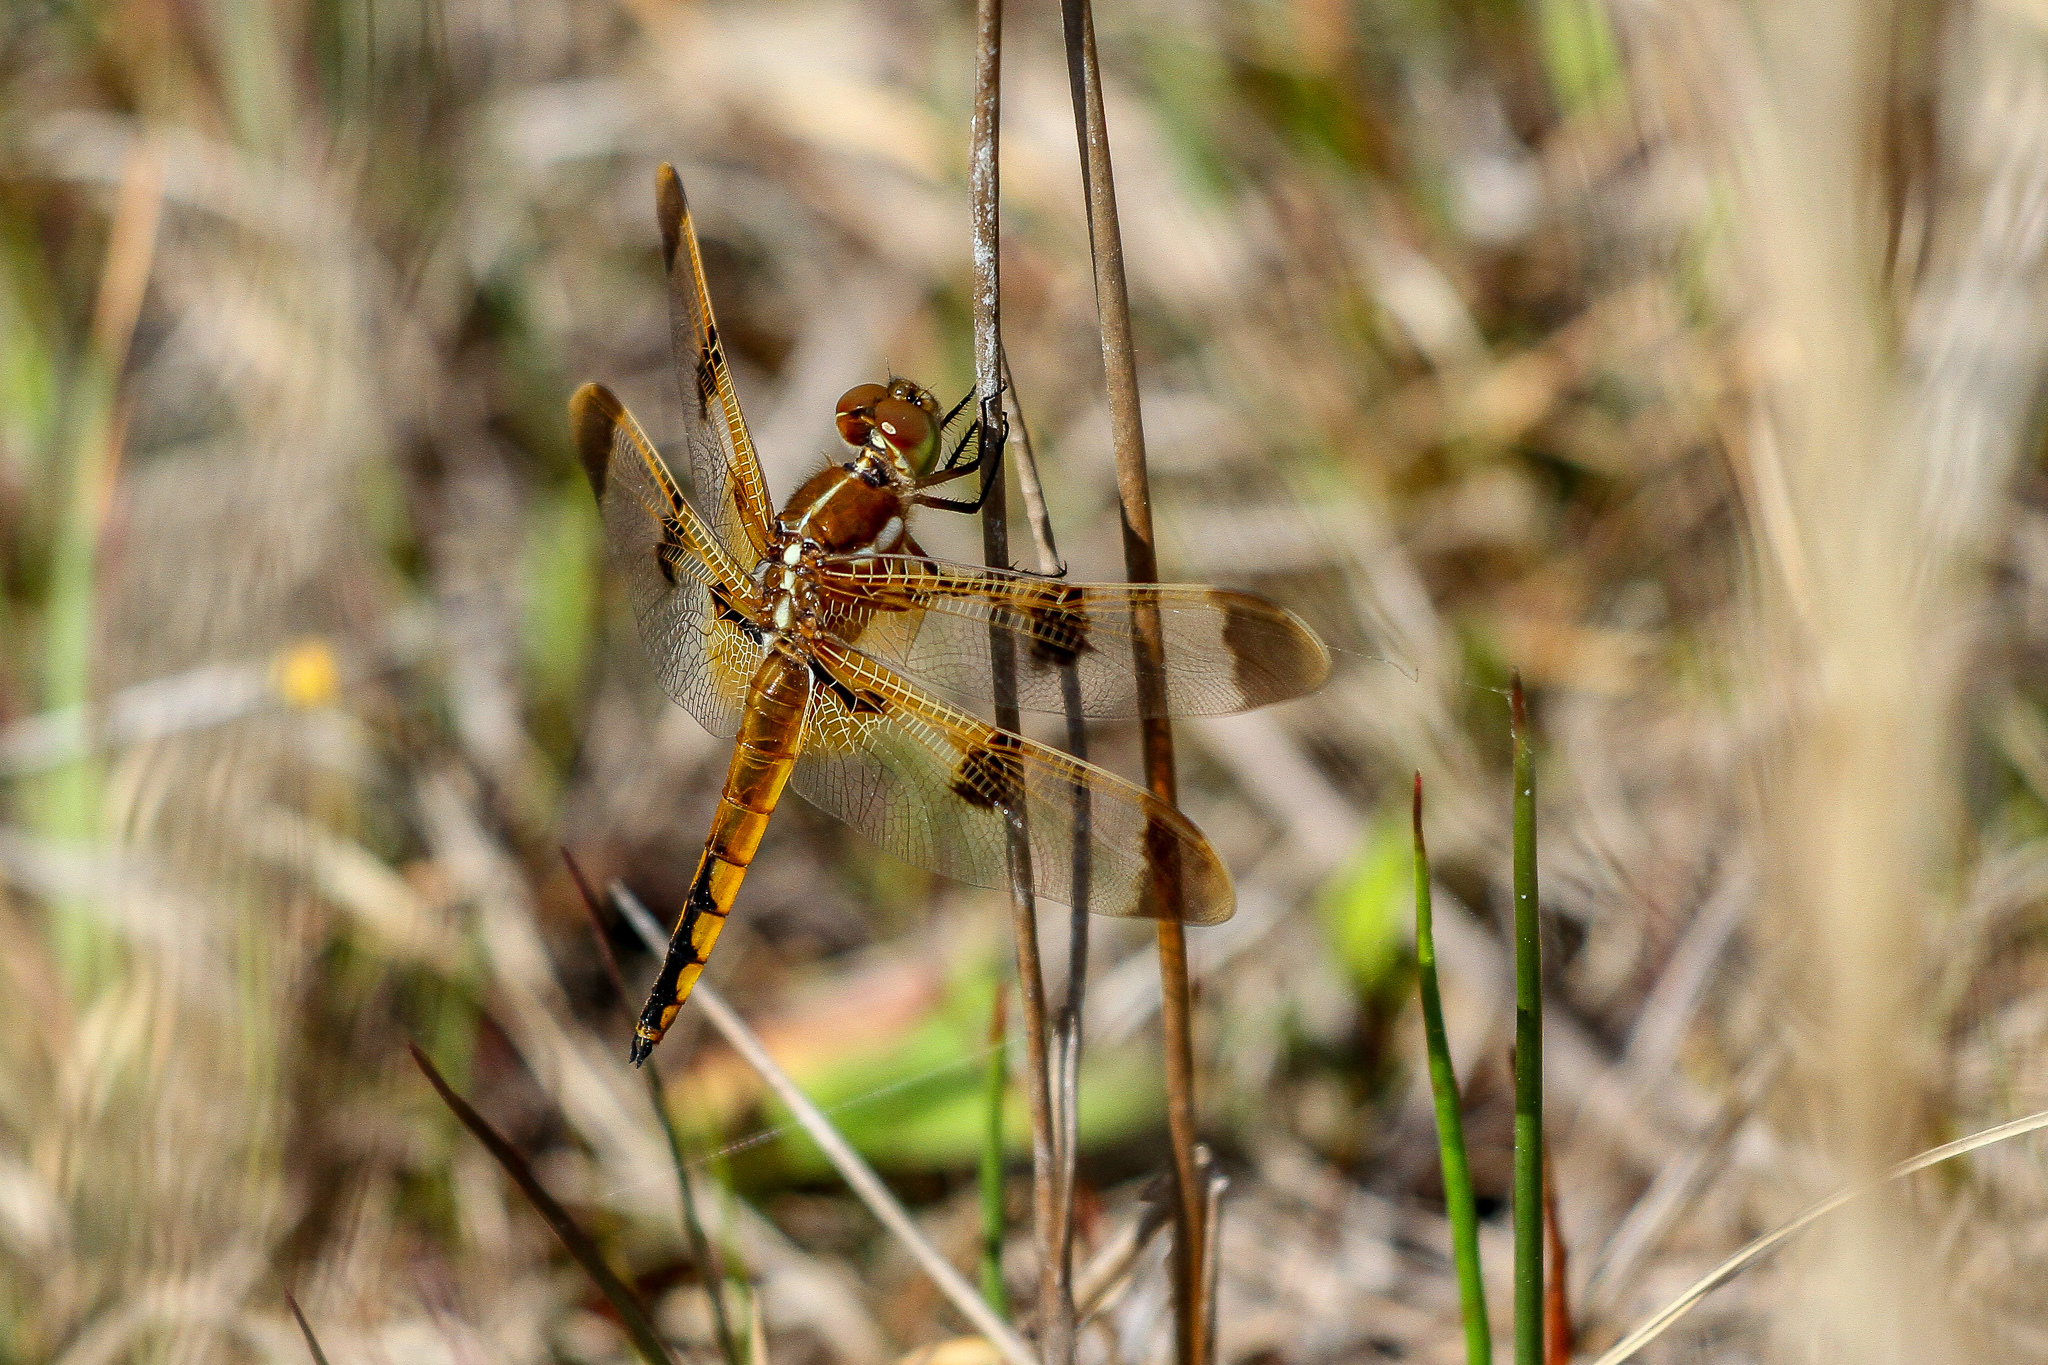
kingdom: Animalia
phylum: Arthropoda
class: Insecta
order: Odonata
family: Libellulidae
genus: Libellula
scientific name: Libellula semifasciata
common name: Painted skimmer
